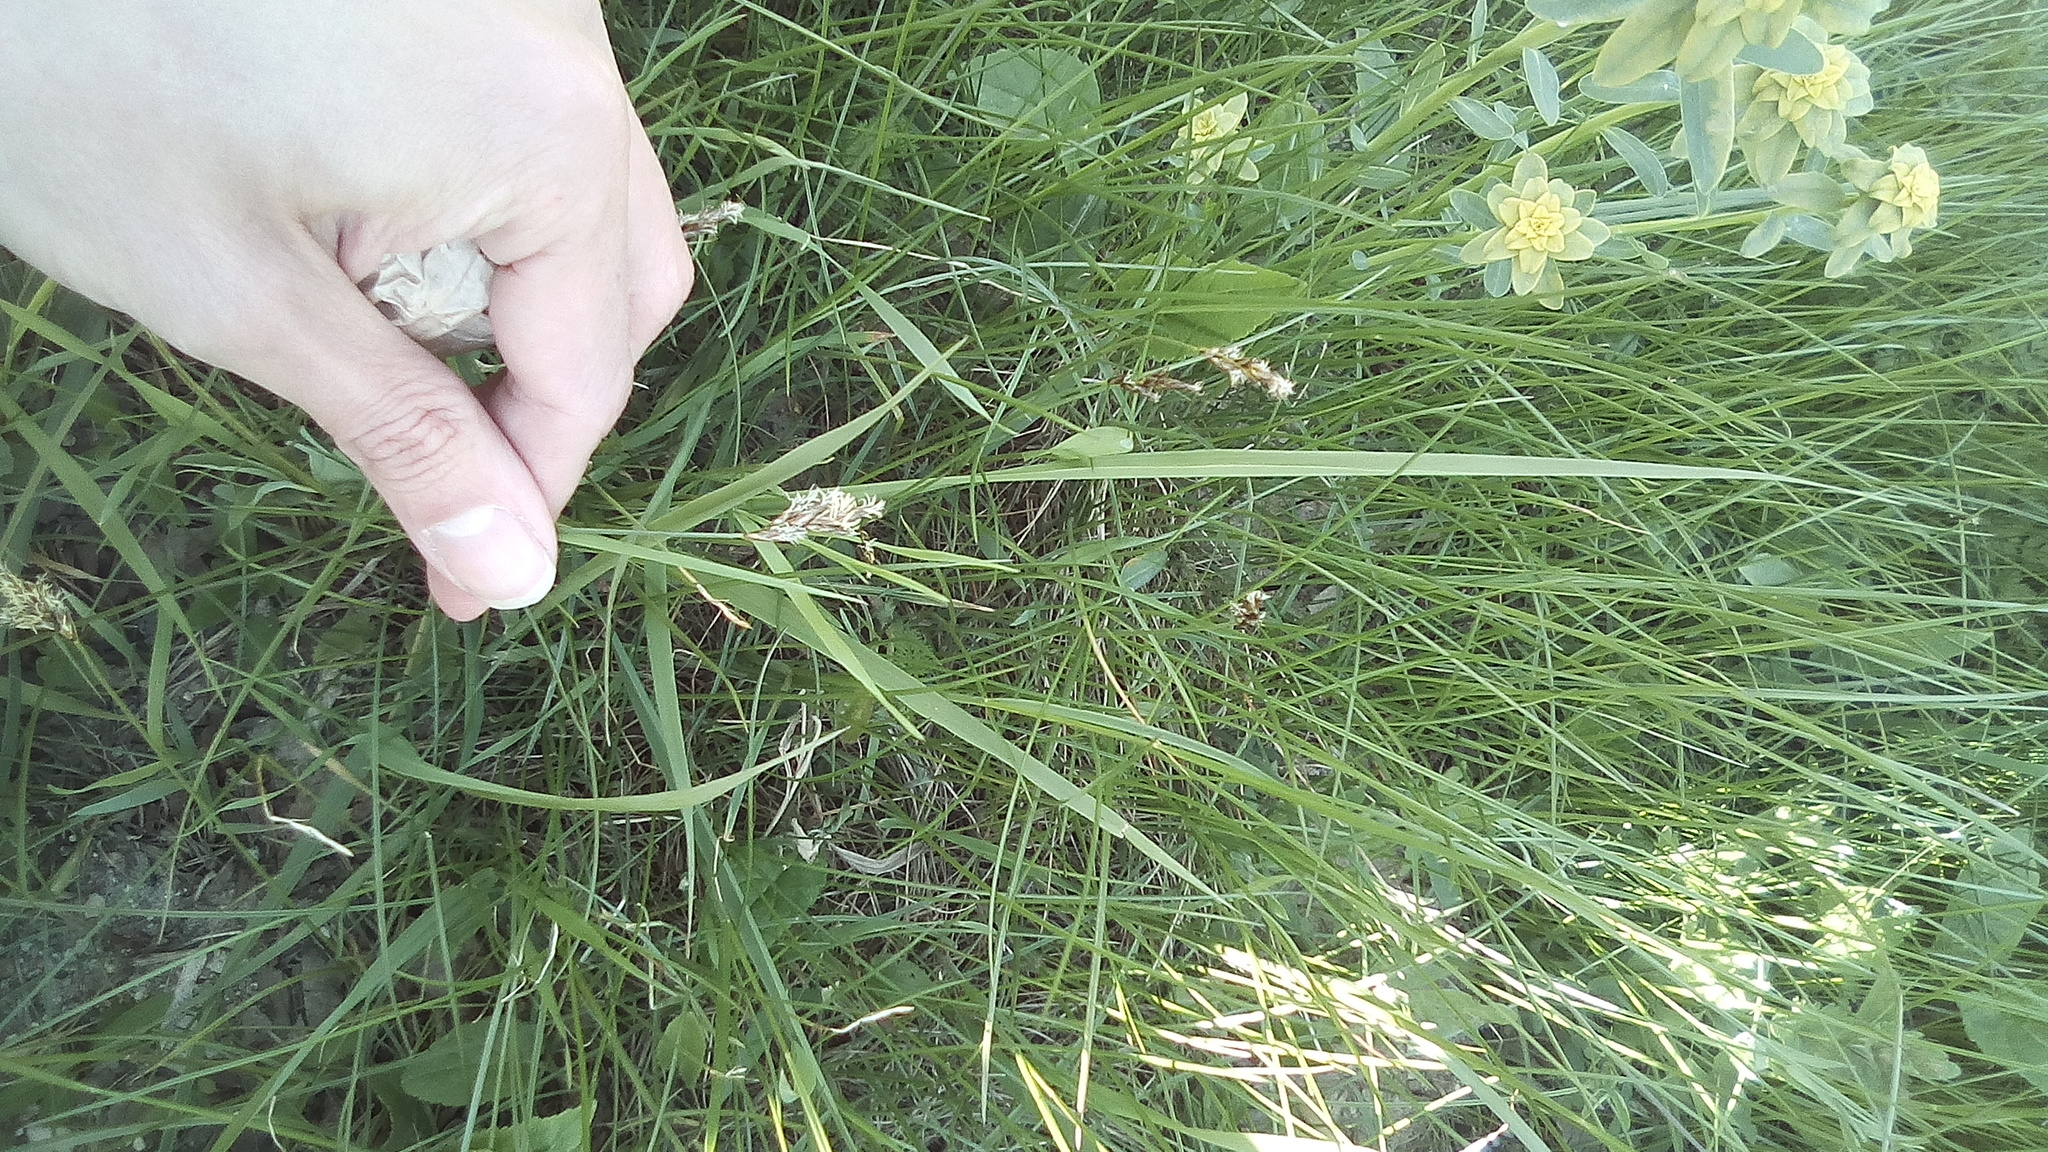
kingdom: Plantae
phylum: Tracheophyta
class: Liliopsida
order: Poales
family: Cyperaceae
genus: Carex
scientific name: Carex praecox
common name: Early sedge
